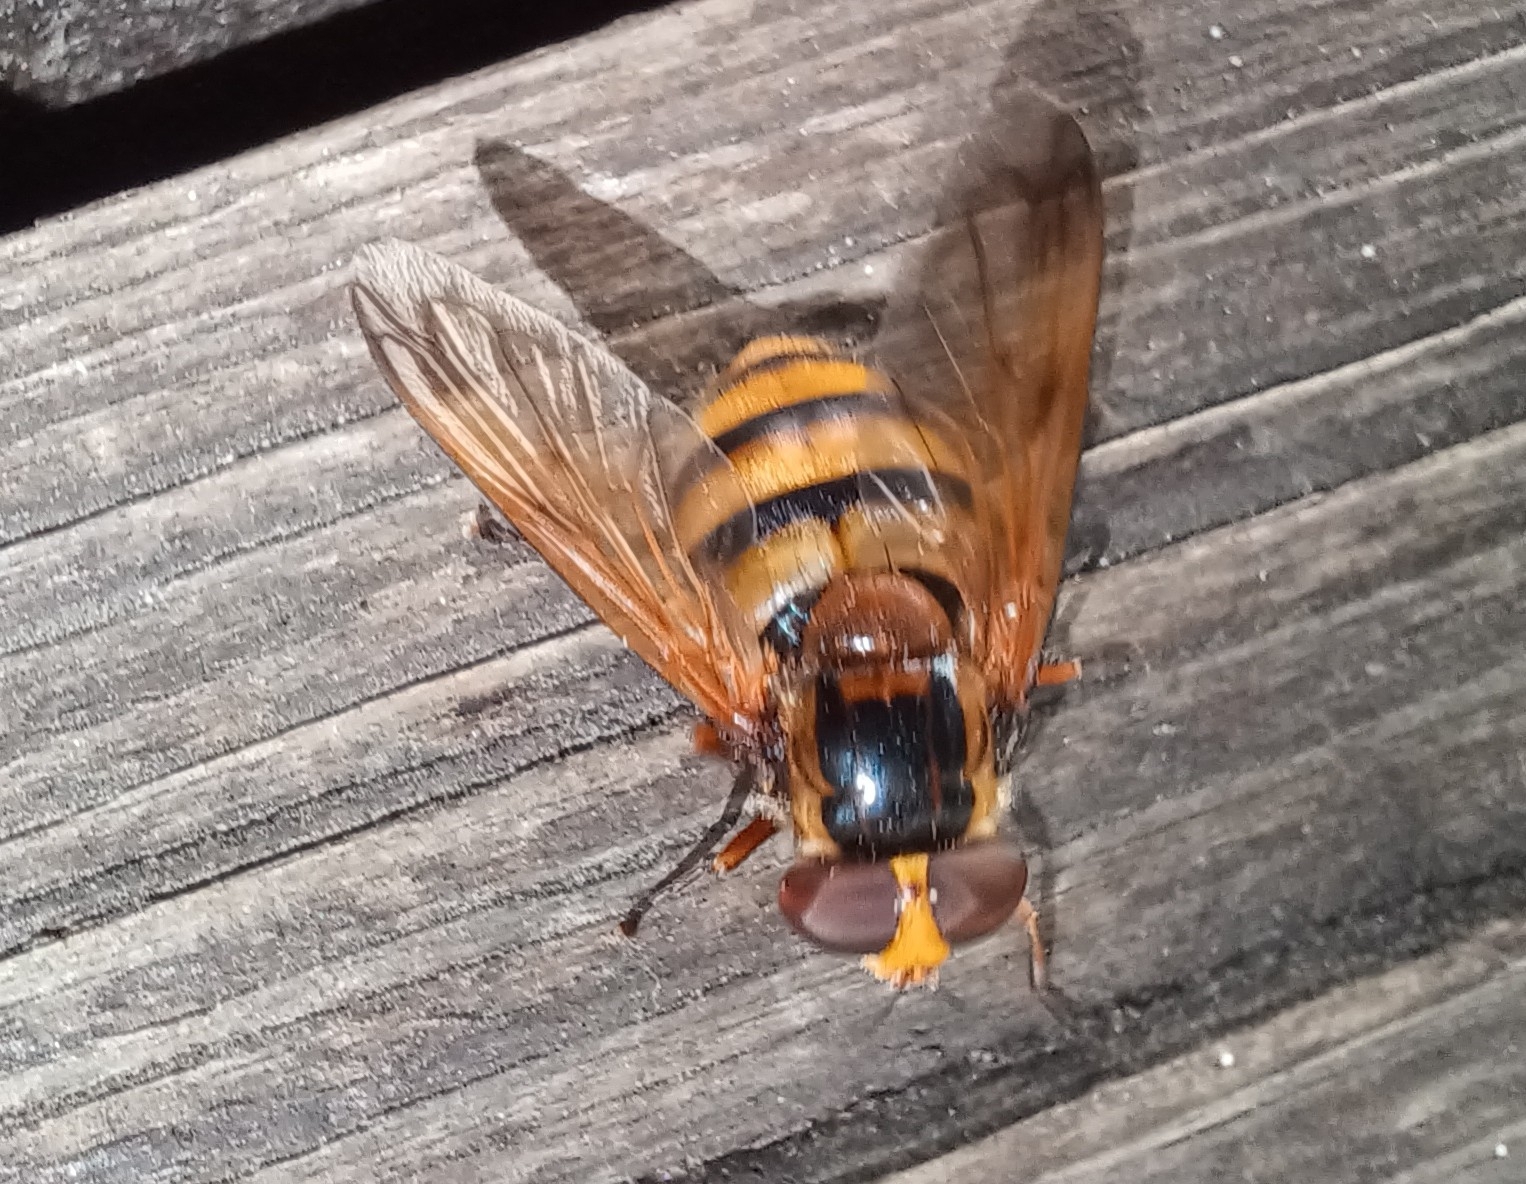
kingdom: Animalia
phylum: Arthropoda
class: Insecta
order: Diptera
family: Syrphidae
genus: Volucella
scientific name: Volucella inanis
